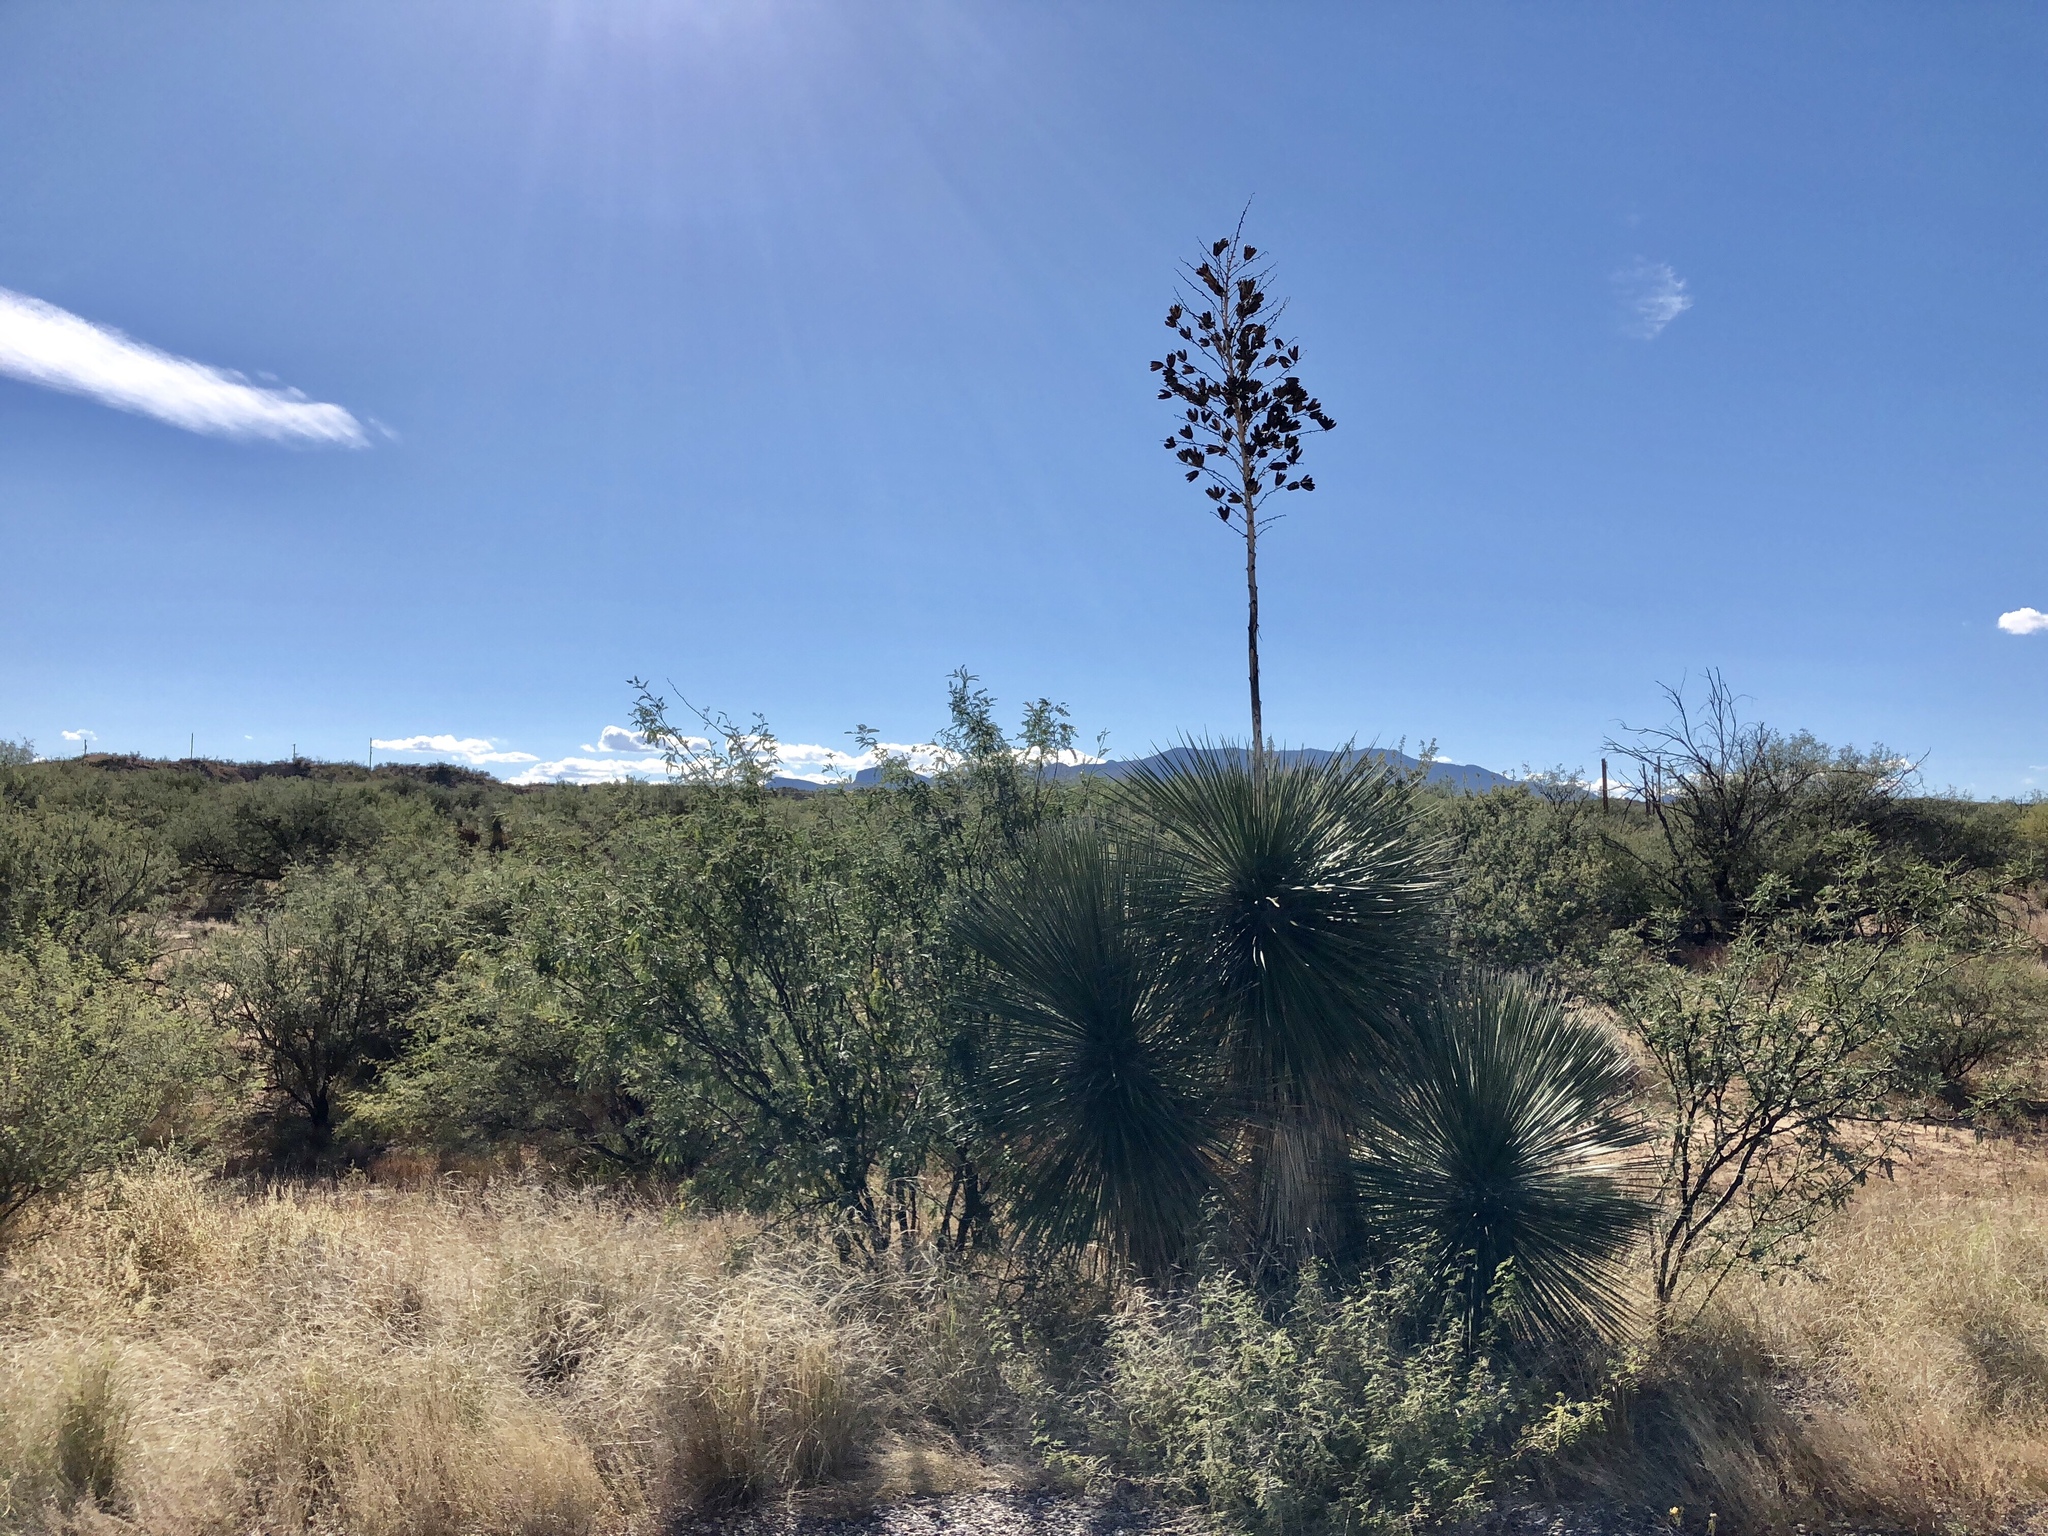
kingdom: Plantae
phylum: Tracheophyta
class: Liliopsida
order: Asparagales
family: Asparagaceae
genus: Yucca
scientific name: Yucca elata
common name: Palmella
